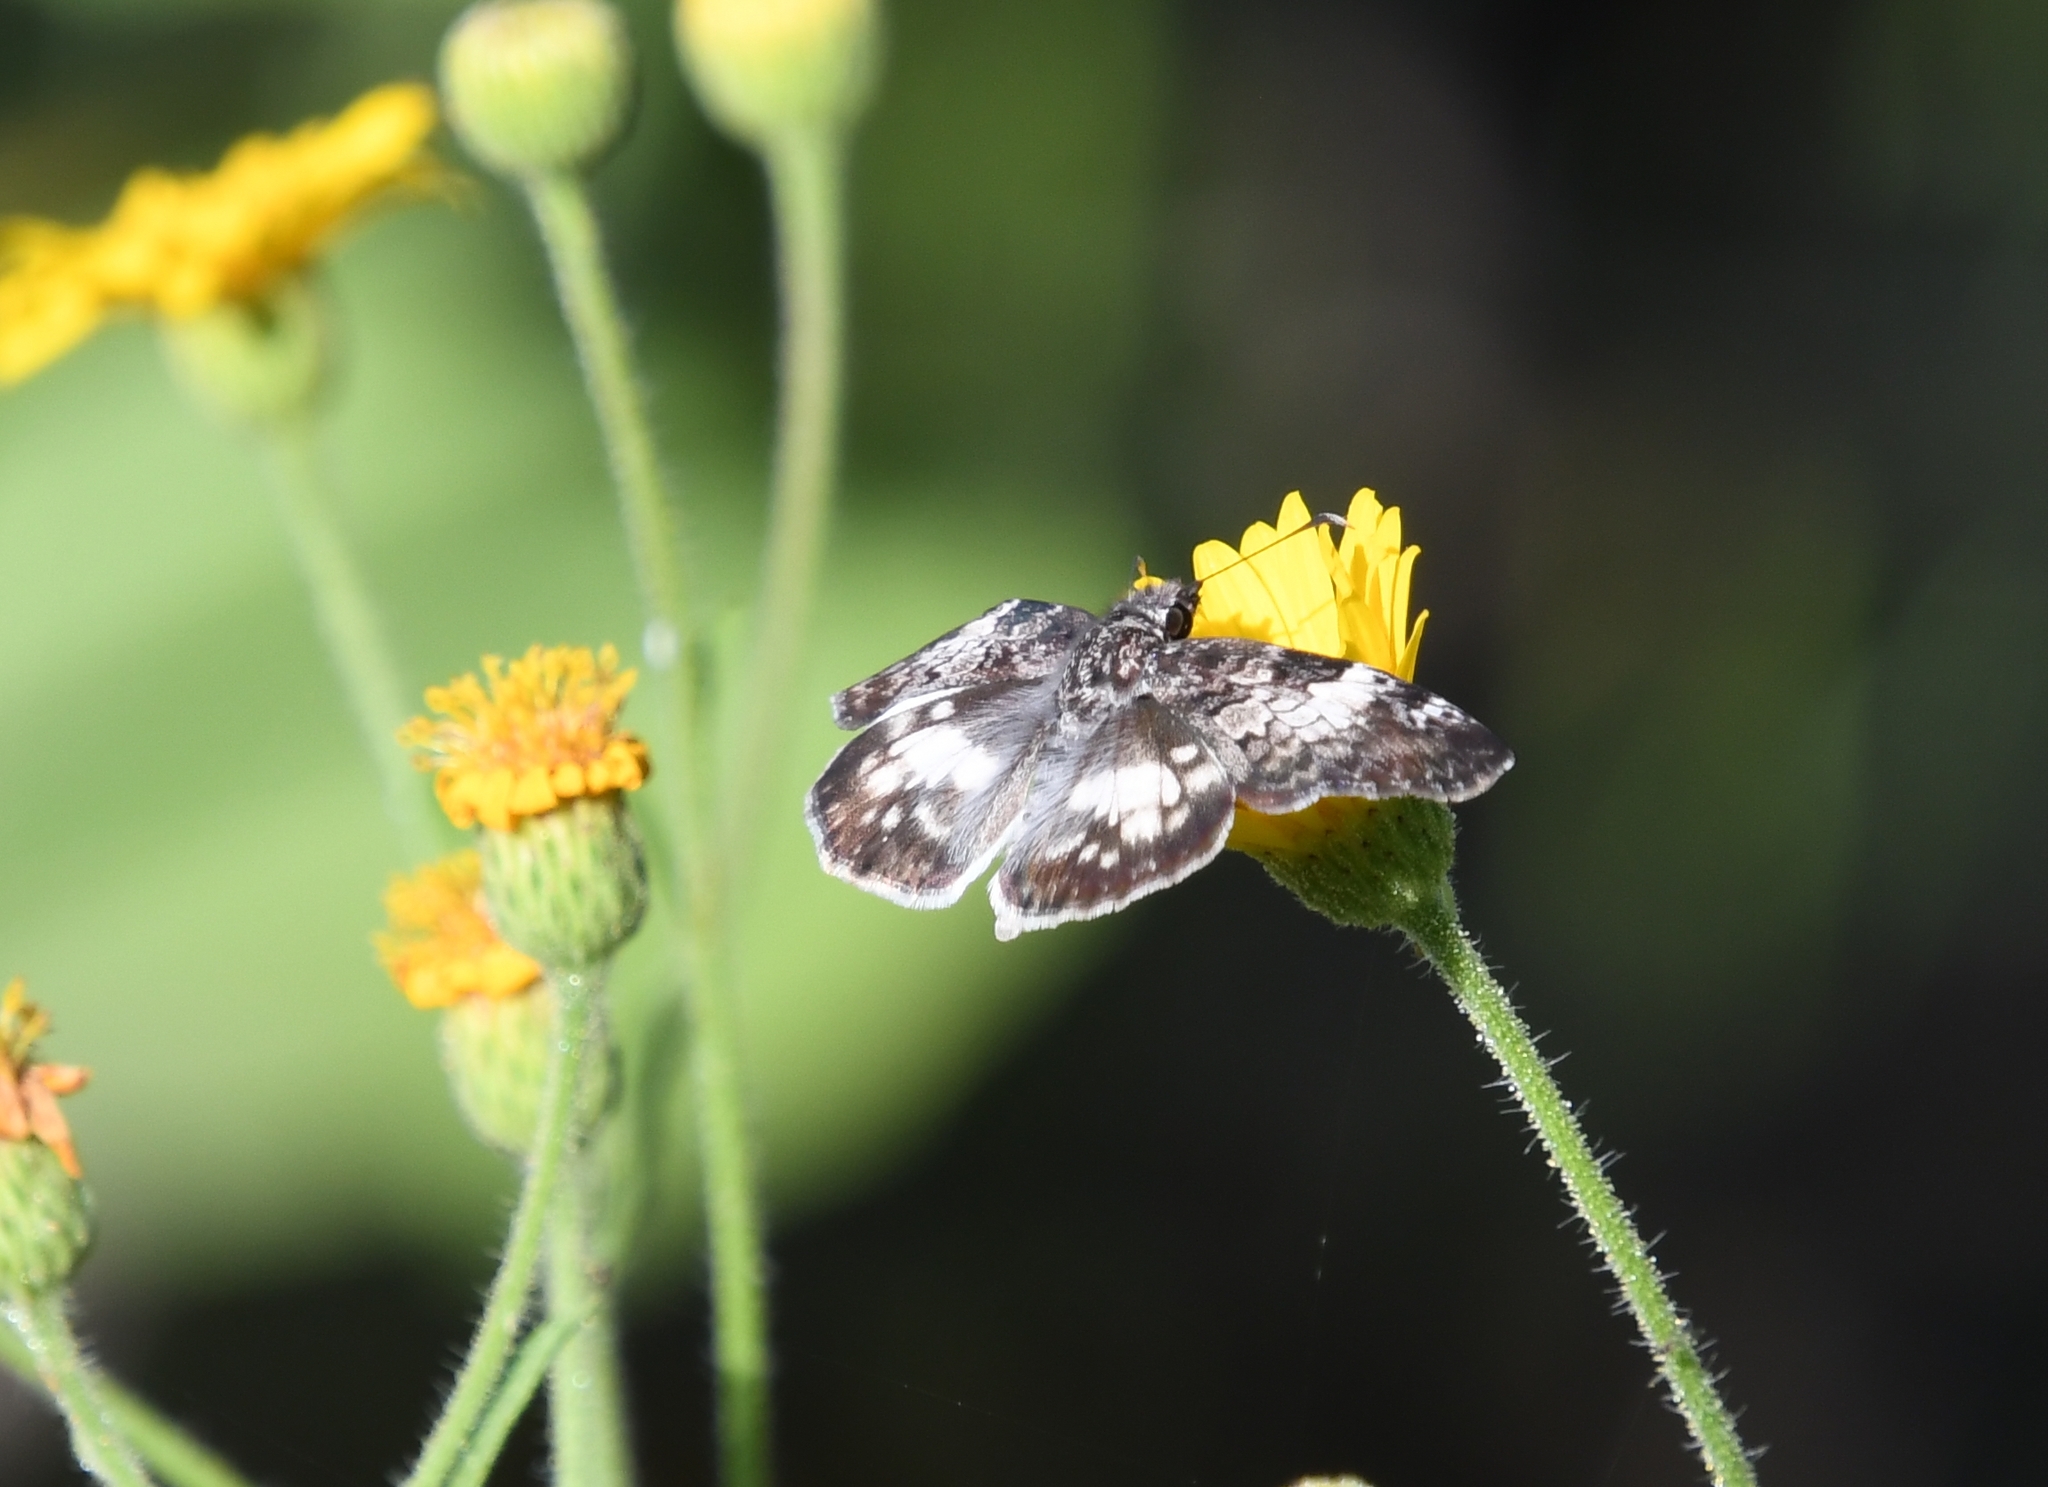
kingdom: Animalia
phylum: Arthropoda
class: Insecta
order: Lepidoptera
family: Hesperiidae
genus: Chiothion
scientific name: Chiothion georgina
